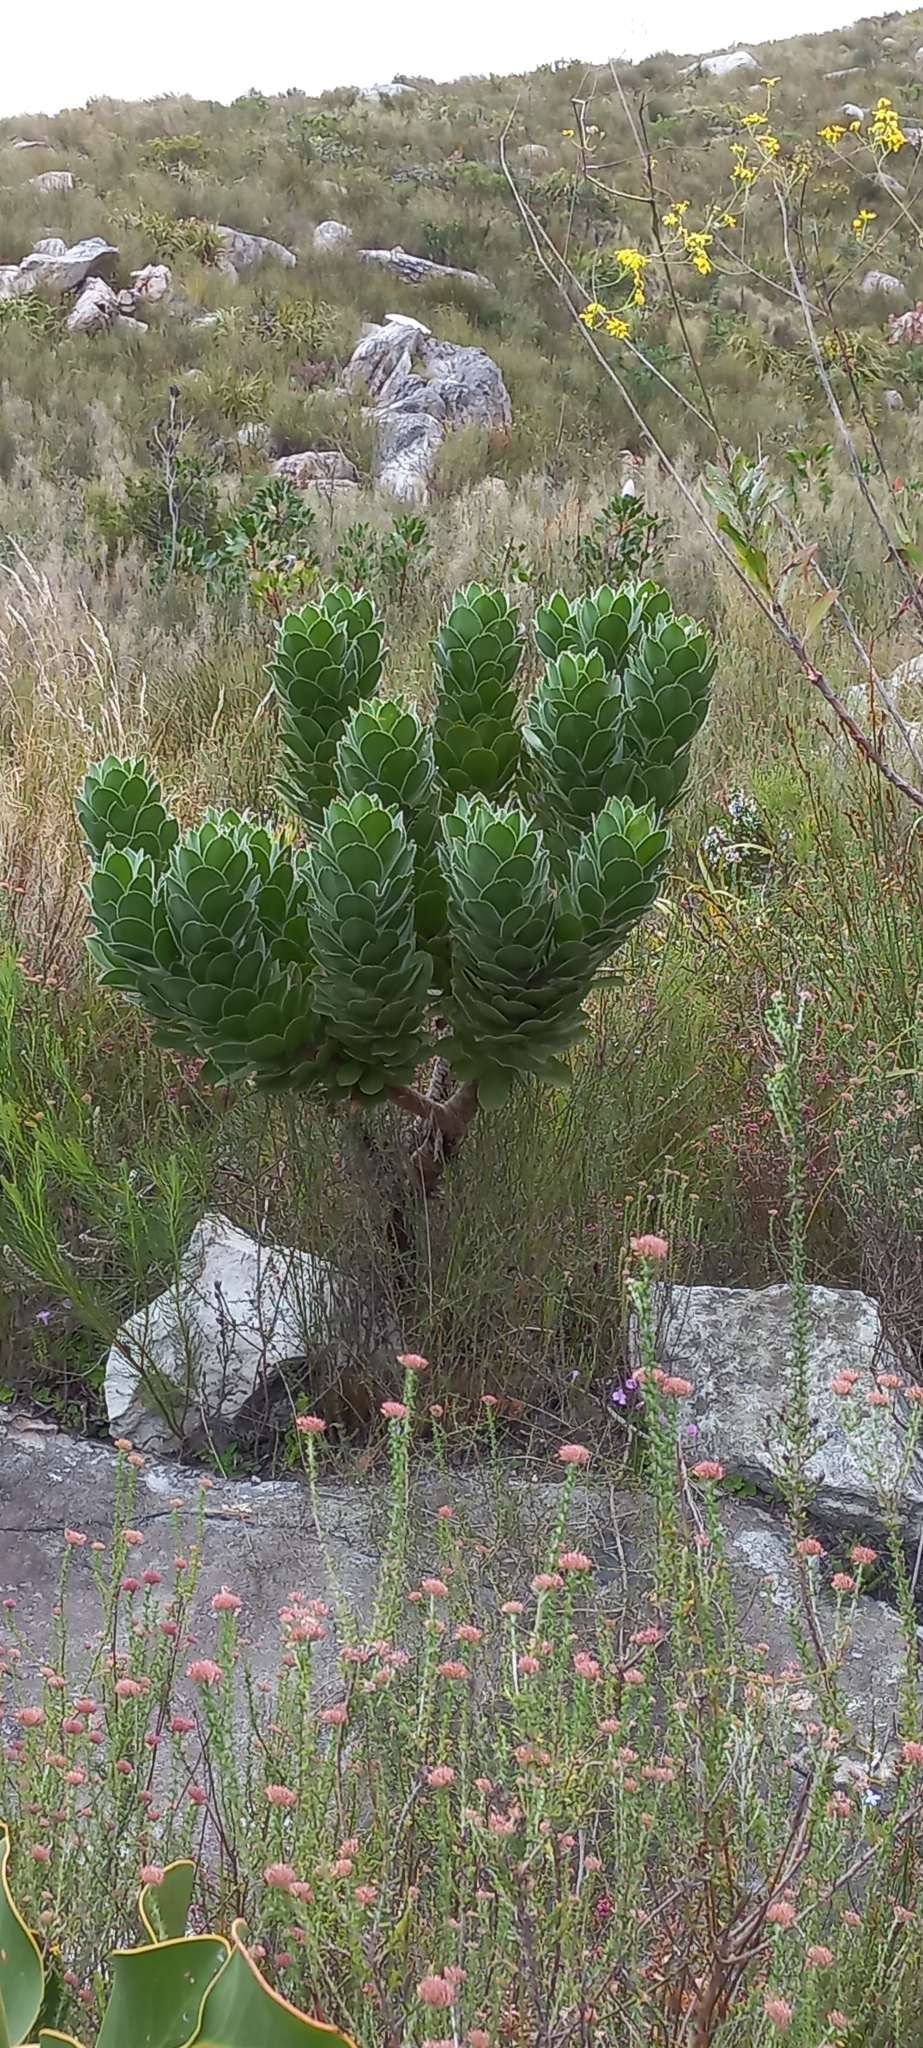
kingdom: Plantae
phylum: Tracheophyta
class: Magnoliopsida
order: Proteales
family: Proteaceae
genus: Leucospermum
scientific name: Leucospermum conocarpodendron
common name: Tree pincushion
